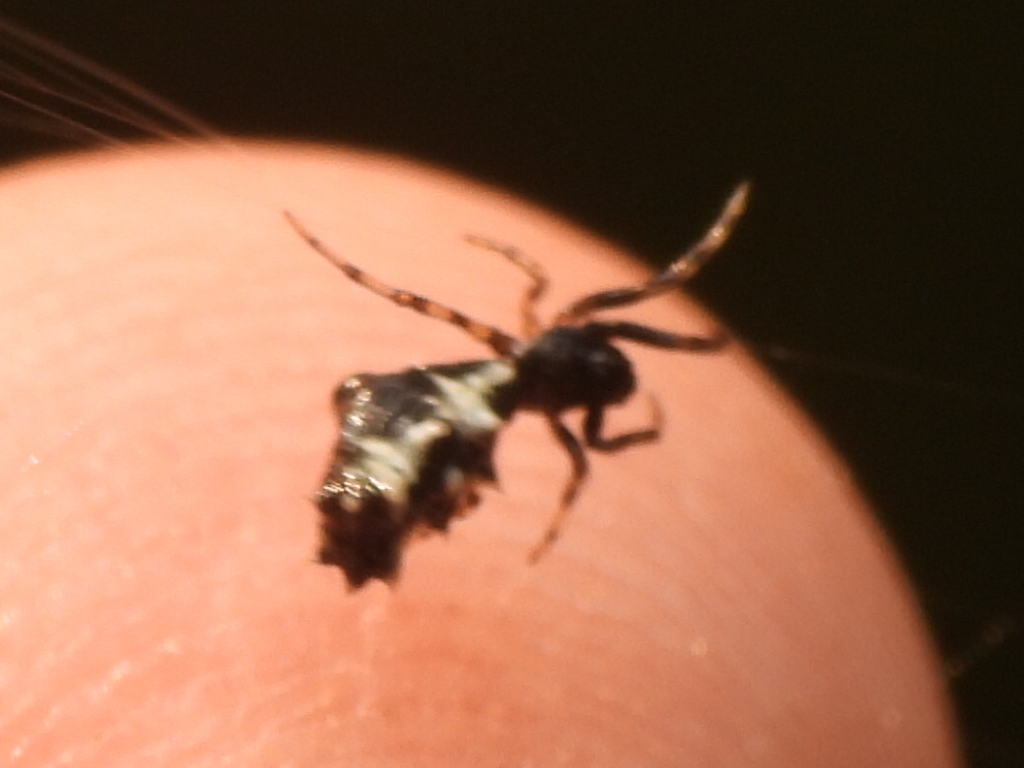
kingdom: Animalia
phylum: Arthropoda
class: Arachnida
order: Araneae
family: Araneidae
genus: Micrathena
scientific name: Micrathena gracilis
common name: Orb weavers
